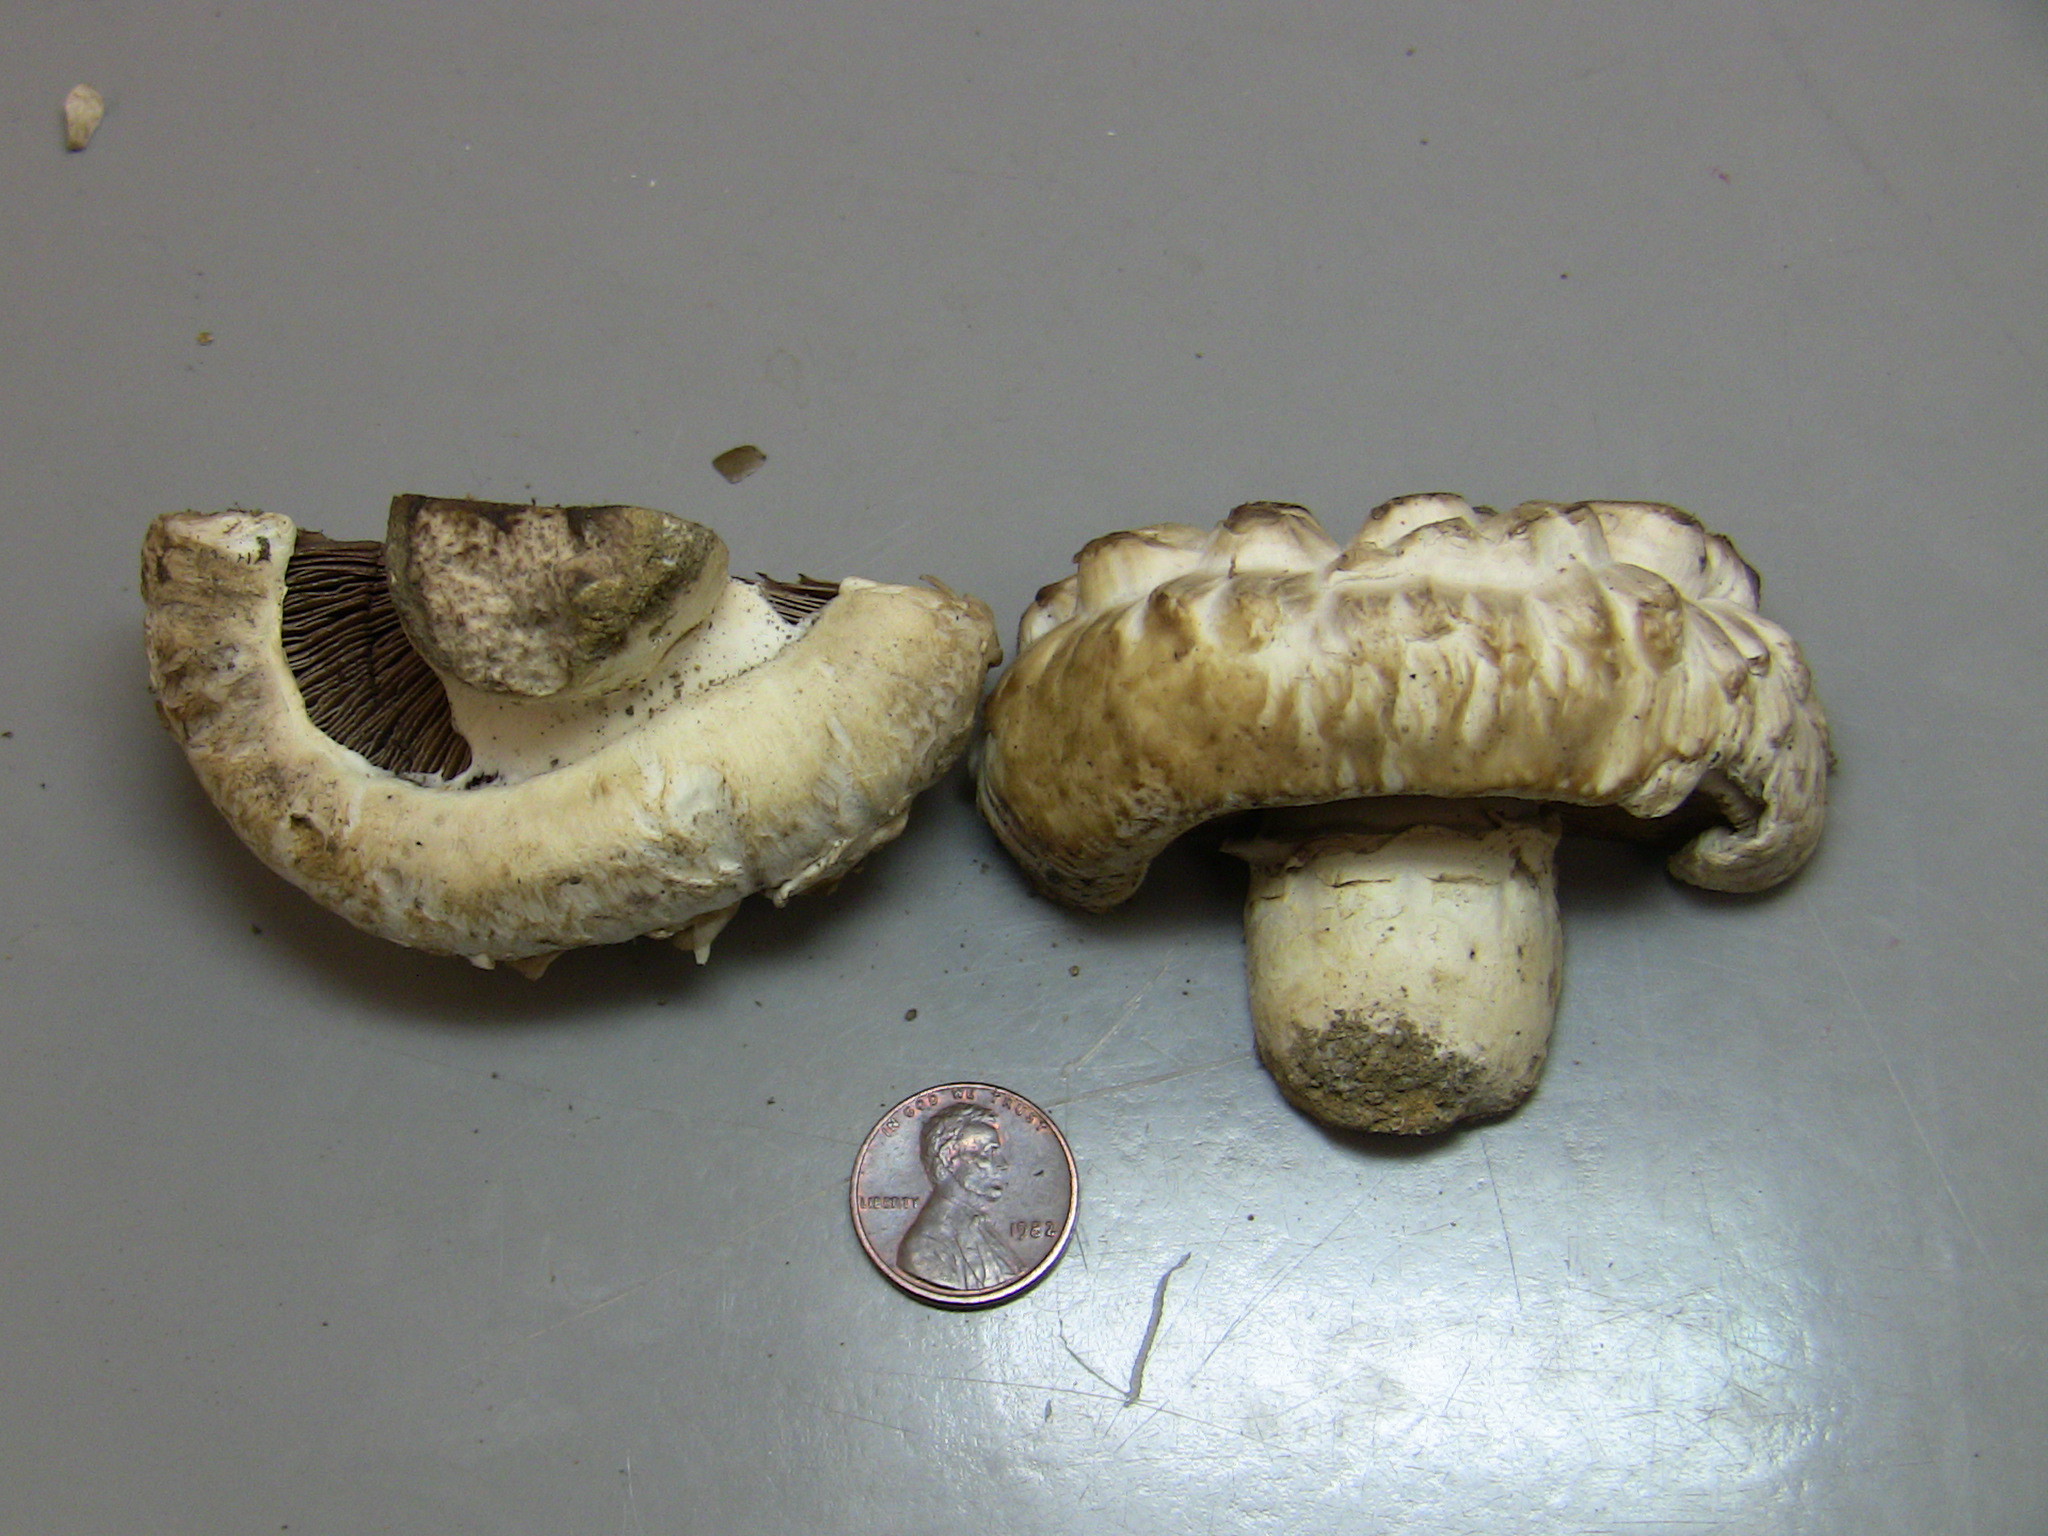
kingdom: Fungi
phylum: Basidiomycota
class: Agaricomycetes
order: Agaricales
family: Agaricaceae
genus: Agaricus
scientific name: Agaricus bernardii
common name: Salty mushroom
